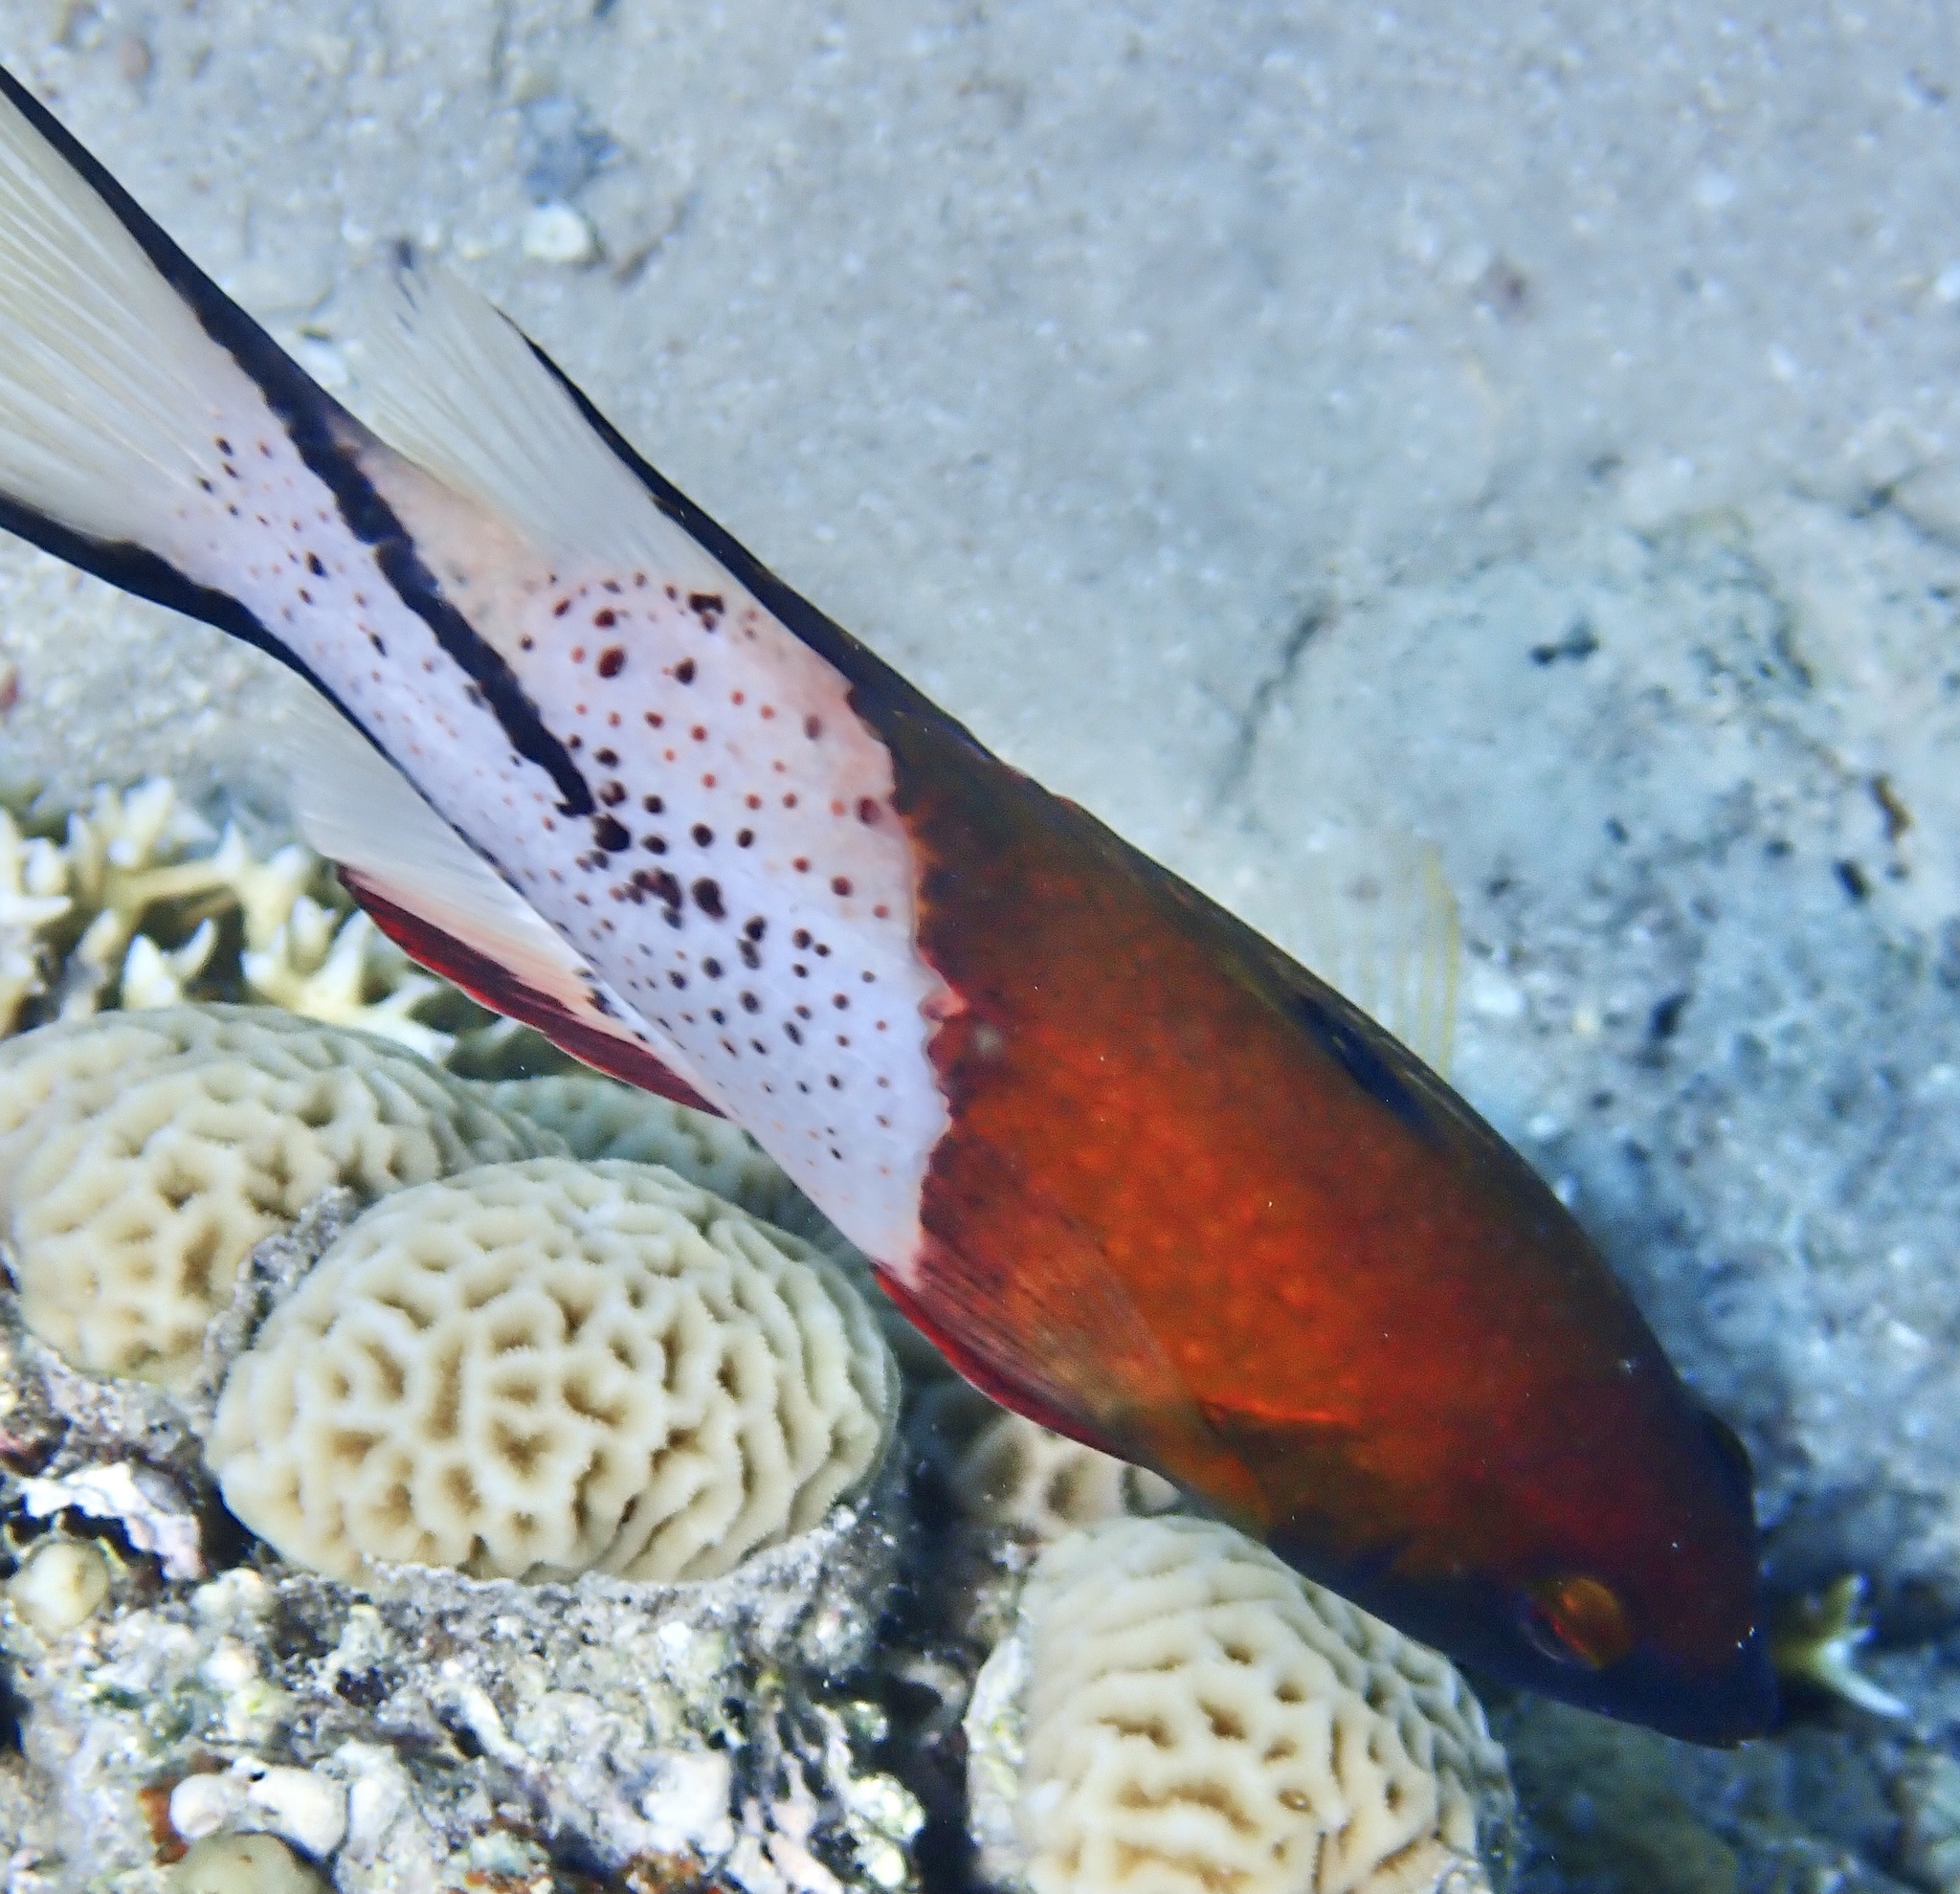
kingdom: Animalia
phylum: Chordata
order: Perciformes
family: Labridae
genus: Bodianus
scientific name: Bodianus anthioides
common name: Lyretail hogfish
